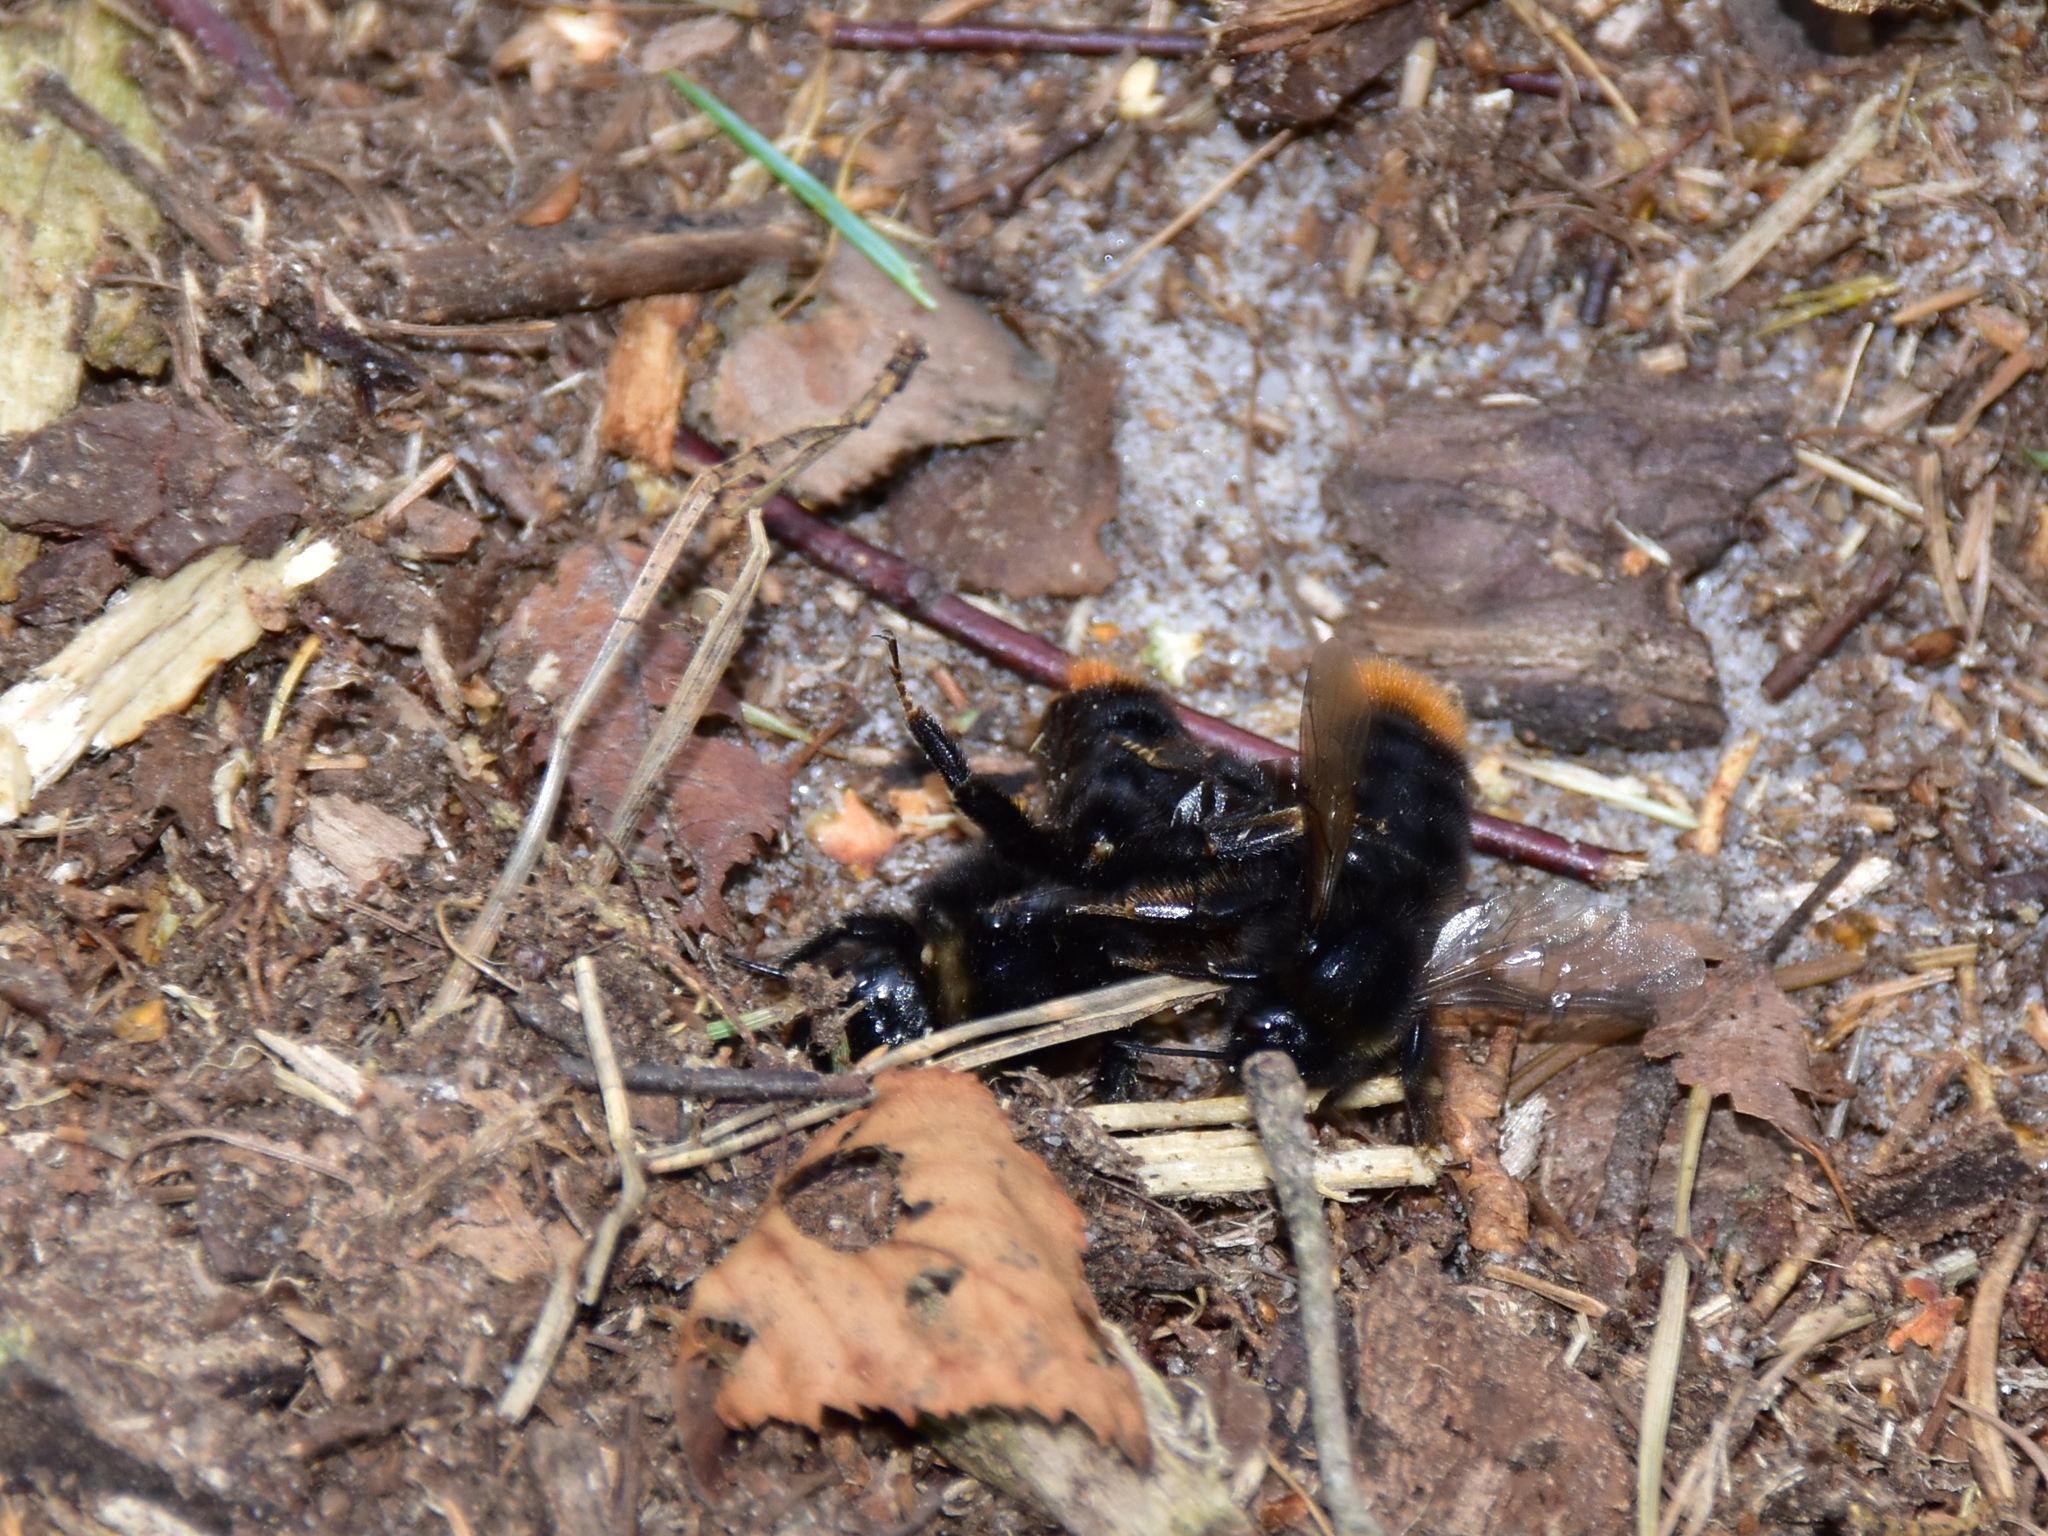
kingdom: Animalia
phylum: Arthropoda
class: Insecta
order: Hymenoptera
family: Apidae
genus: Bombus
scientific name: Bombus rupestris
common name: Hill cuckoo-bee
